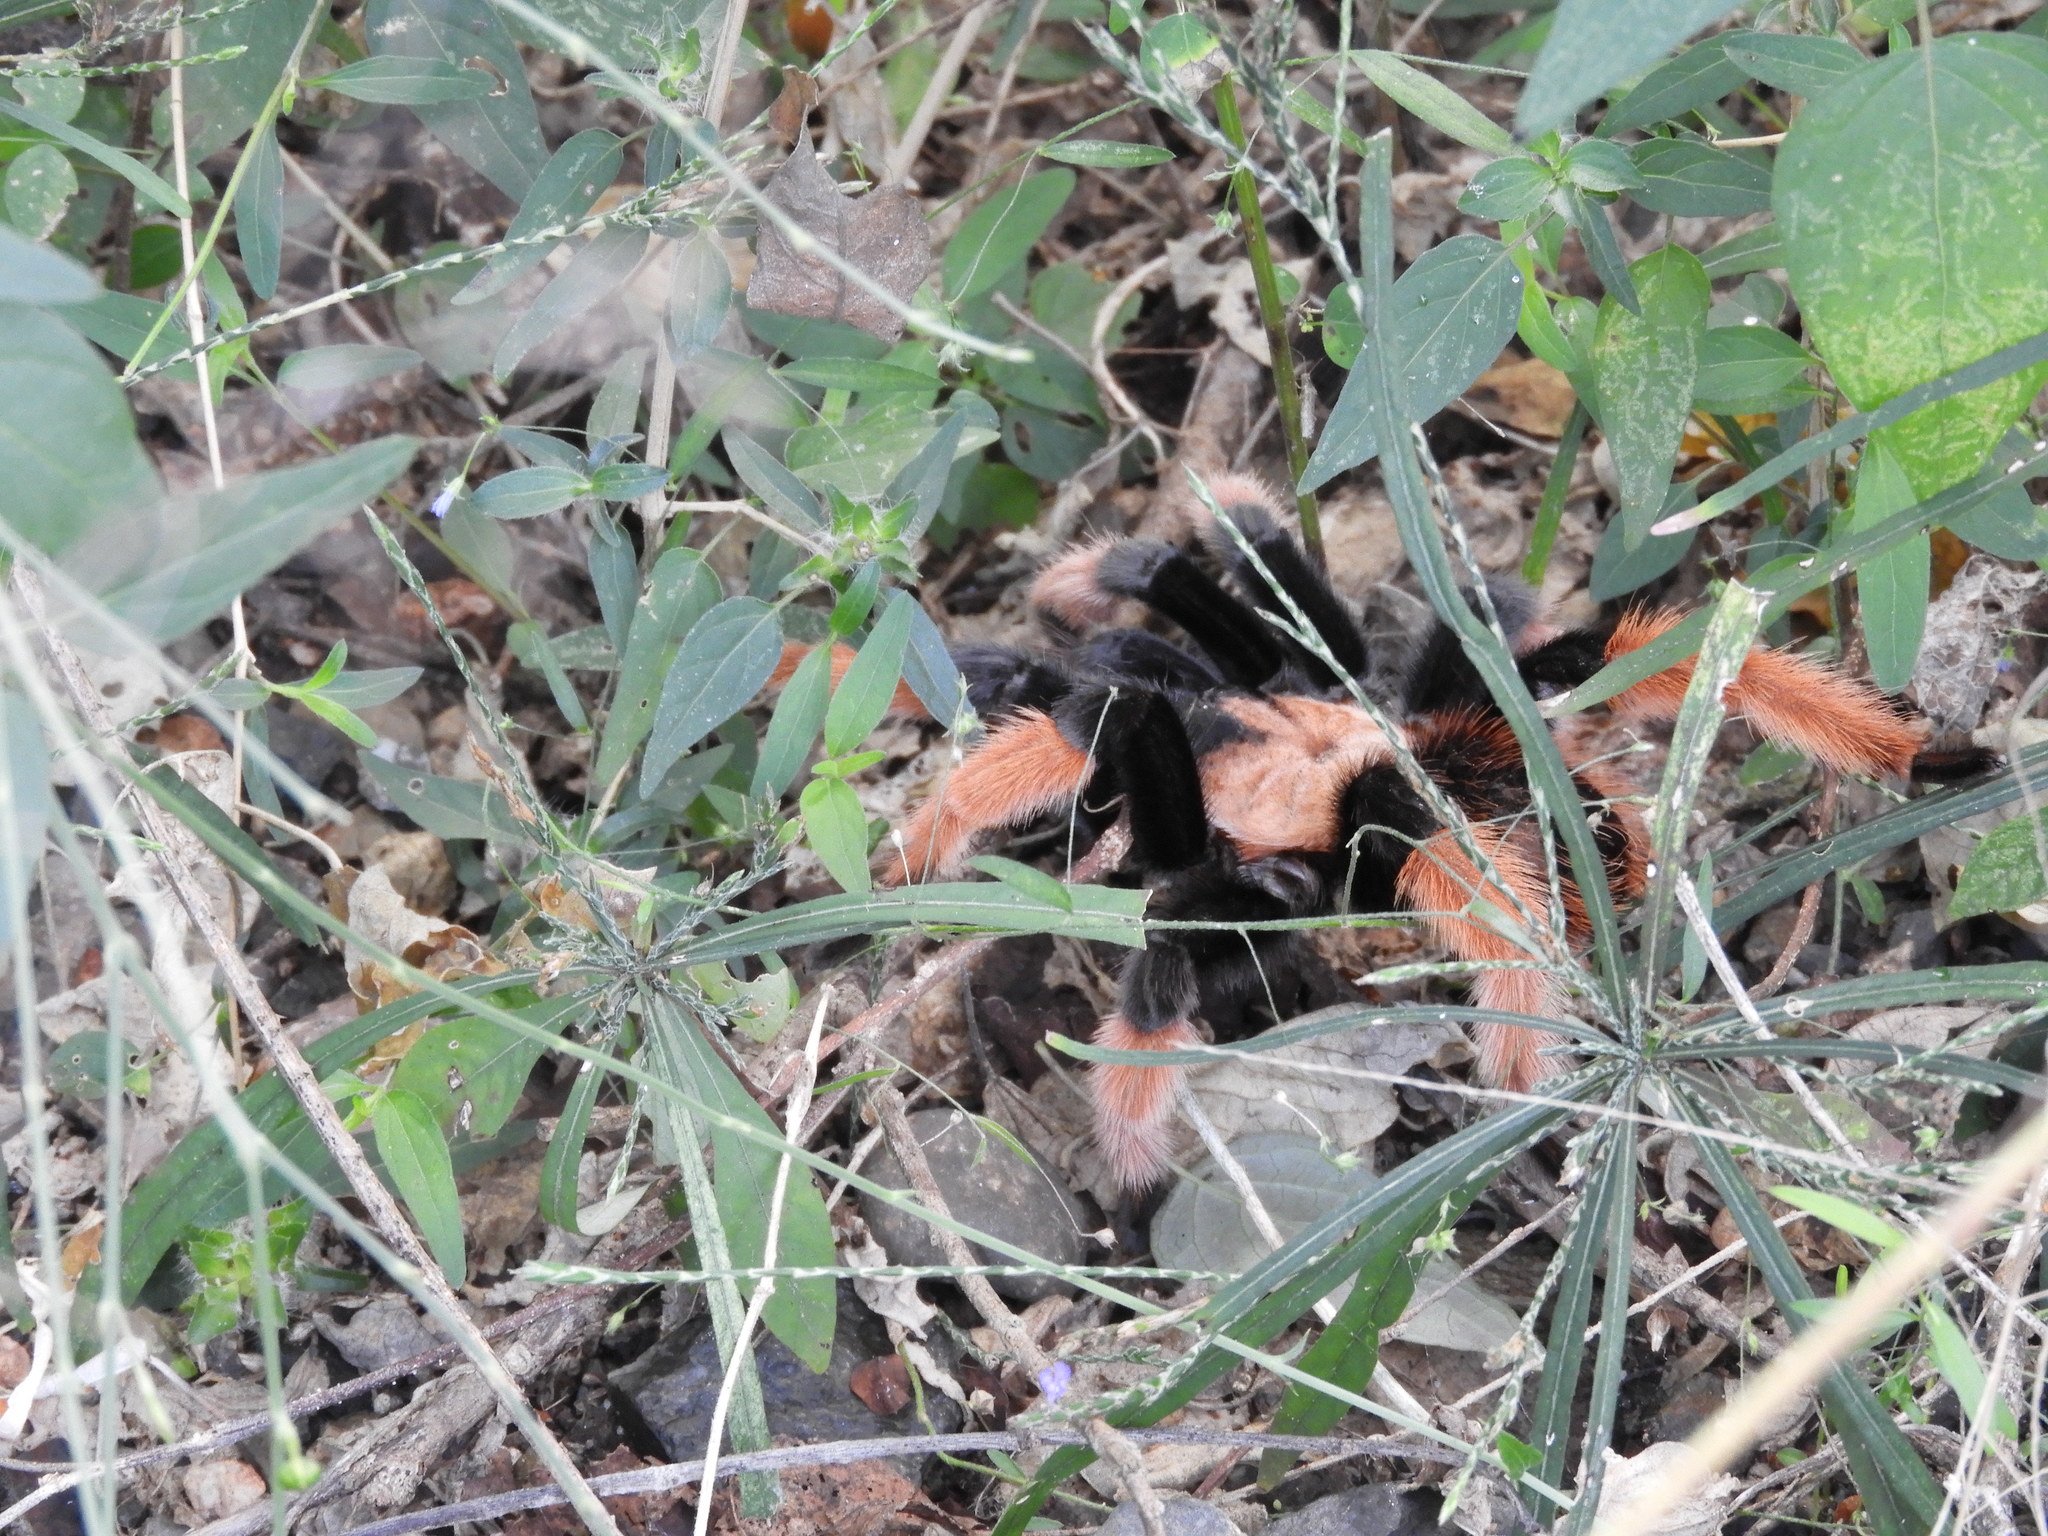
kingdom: Animalia
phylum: Arthropoda
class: Arachnida
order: Araneae
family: Theraphosidae
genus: Brachypelma
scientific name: Brachypelma emilia
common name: Mexican redleg
